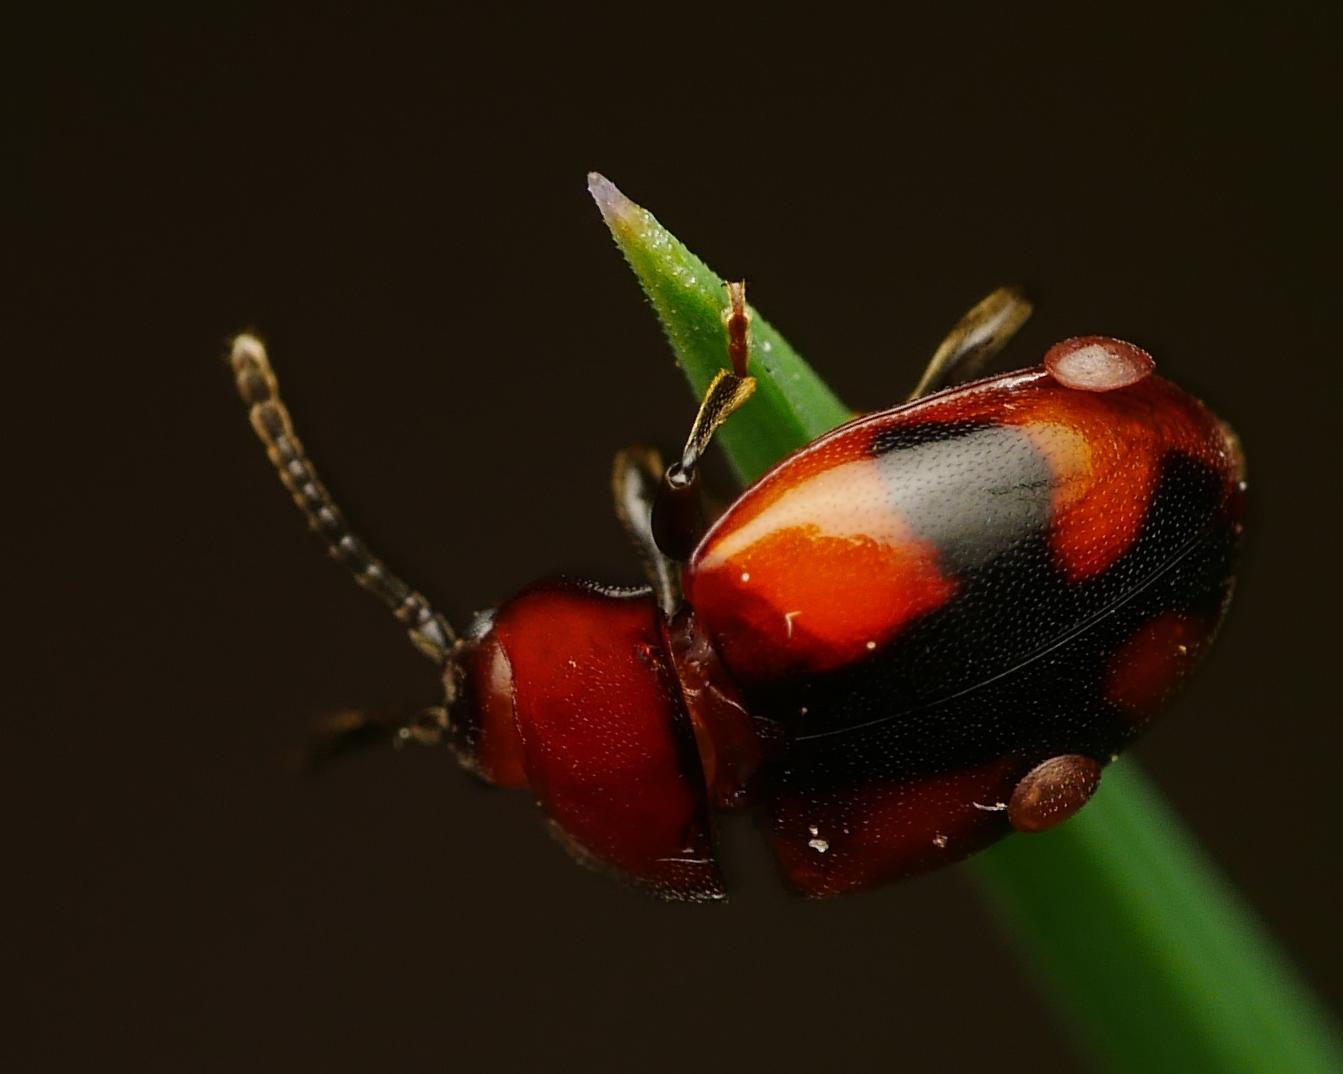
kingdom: Animalia
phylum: Arthropoda
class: Insecta
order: Coleoptera
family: Endomychidae
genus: Mycetina
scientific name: Mycetina cruciata
